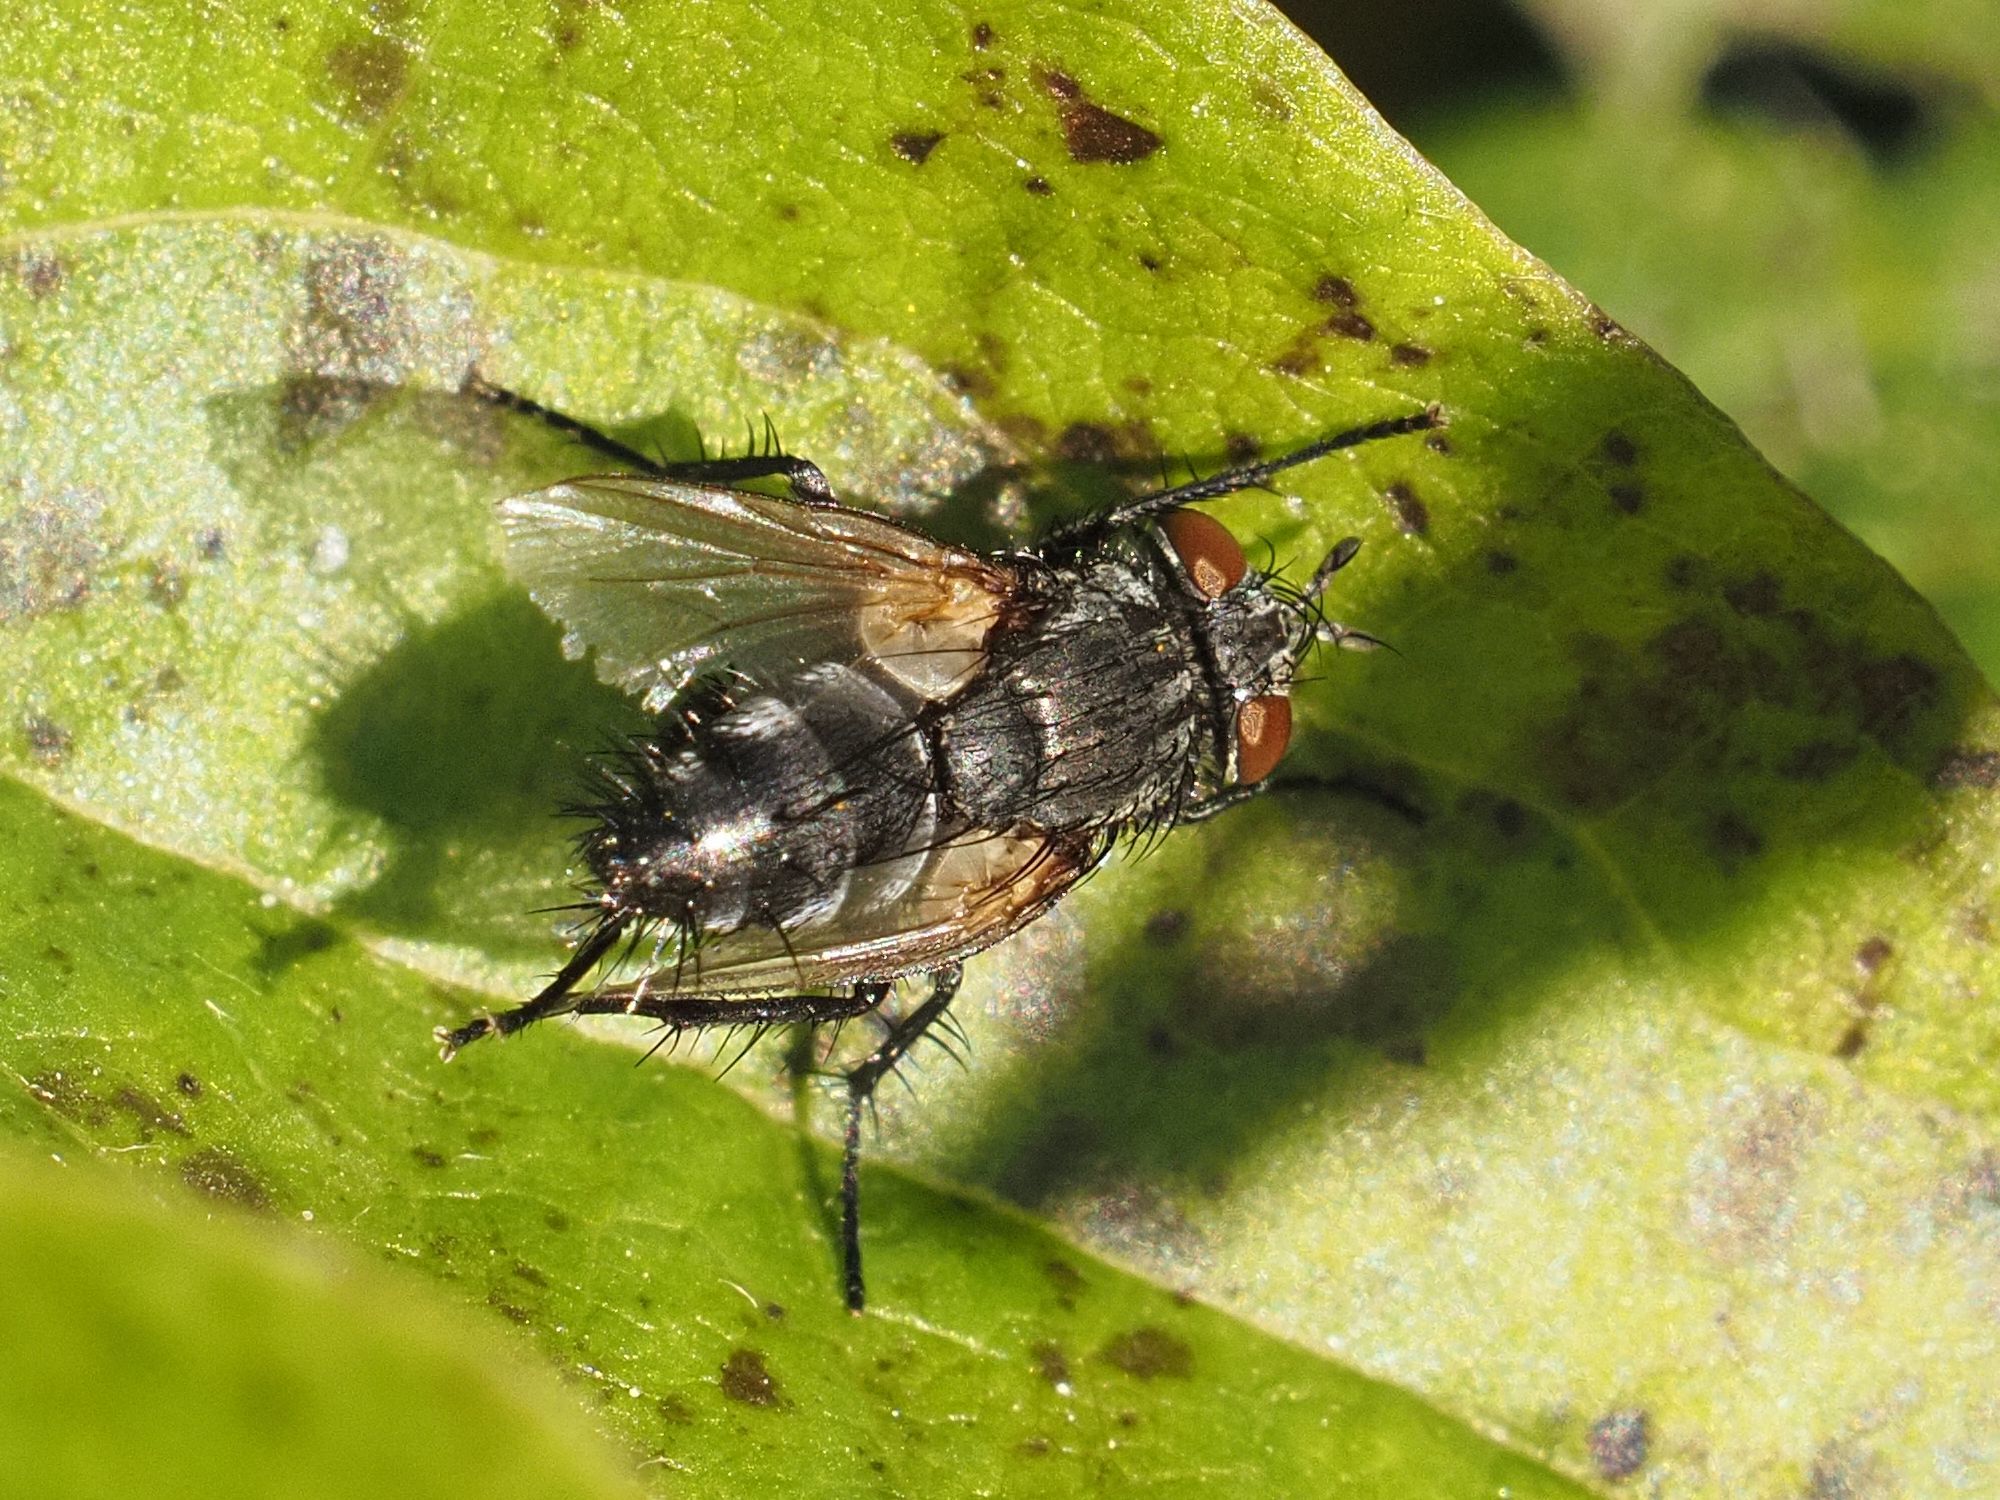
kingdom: Animalia
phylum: Arthropoda
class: Insecta
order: Diptera
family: Tachinidae
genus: Voria
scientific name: Voria ruralis
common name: Parasitic fly
